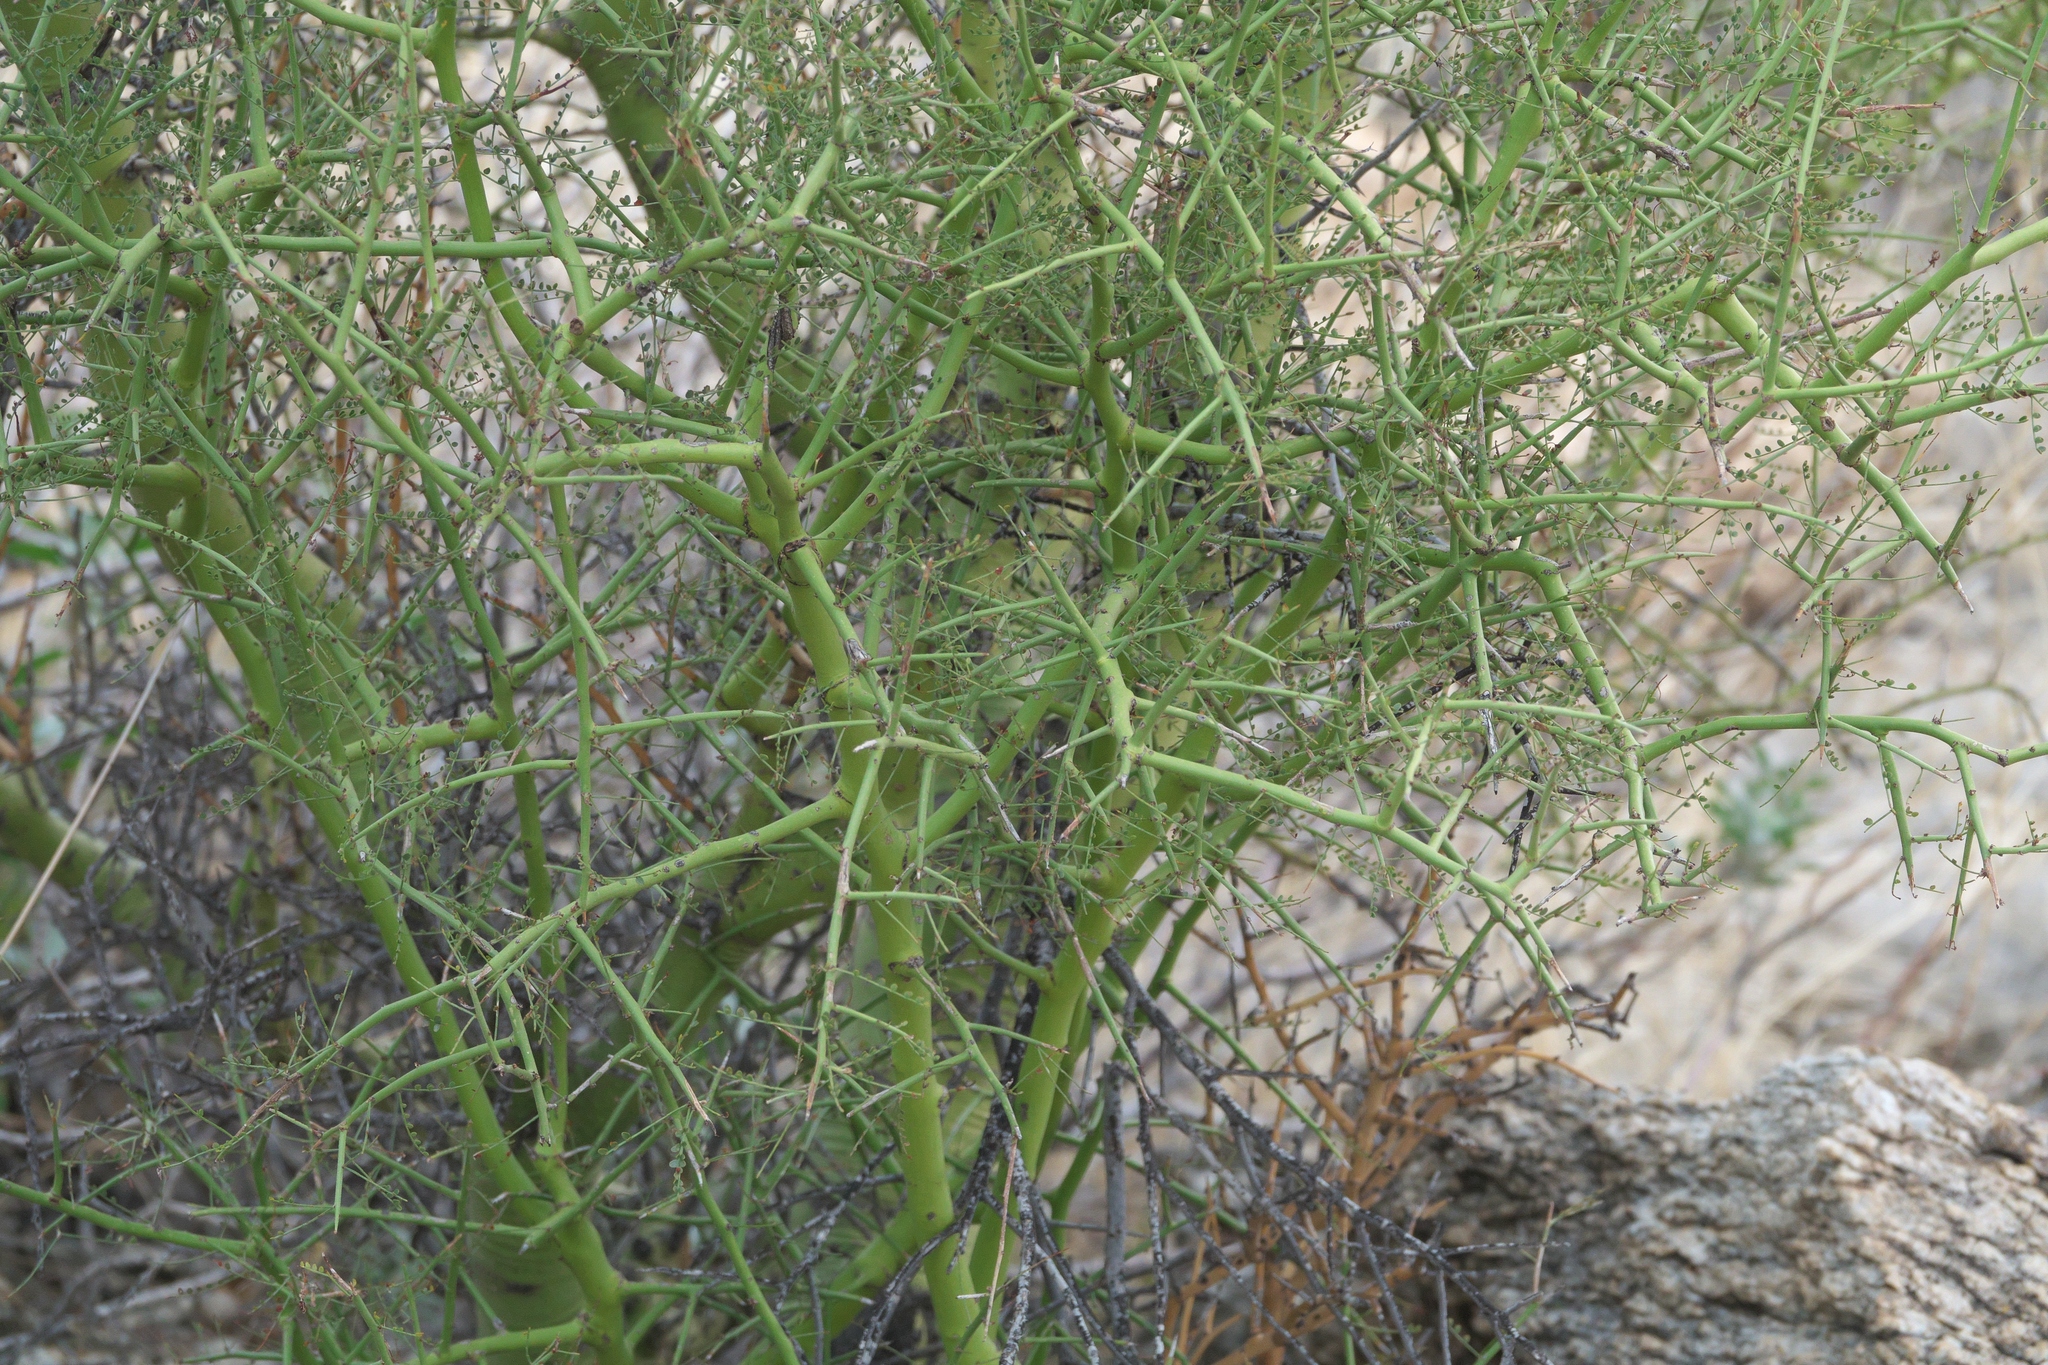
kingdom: Plantae
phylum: Tracheophyta
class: Magnoliopsida
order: Fabales
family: Fabaceae
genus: Parkinsonia
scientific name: Parkinsonia microphylla
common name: Yellow paloverde
